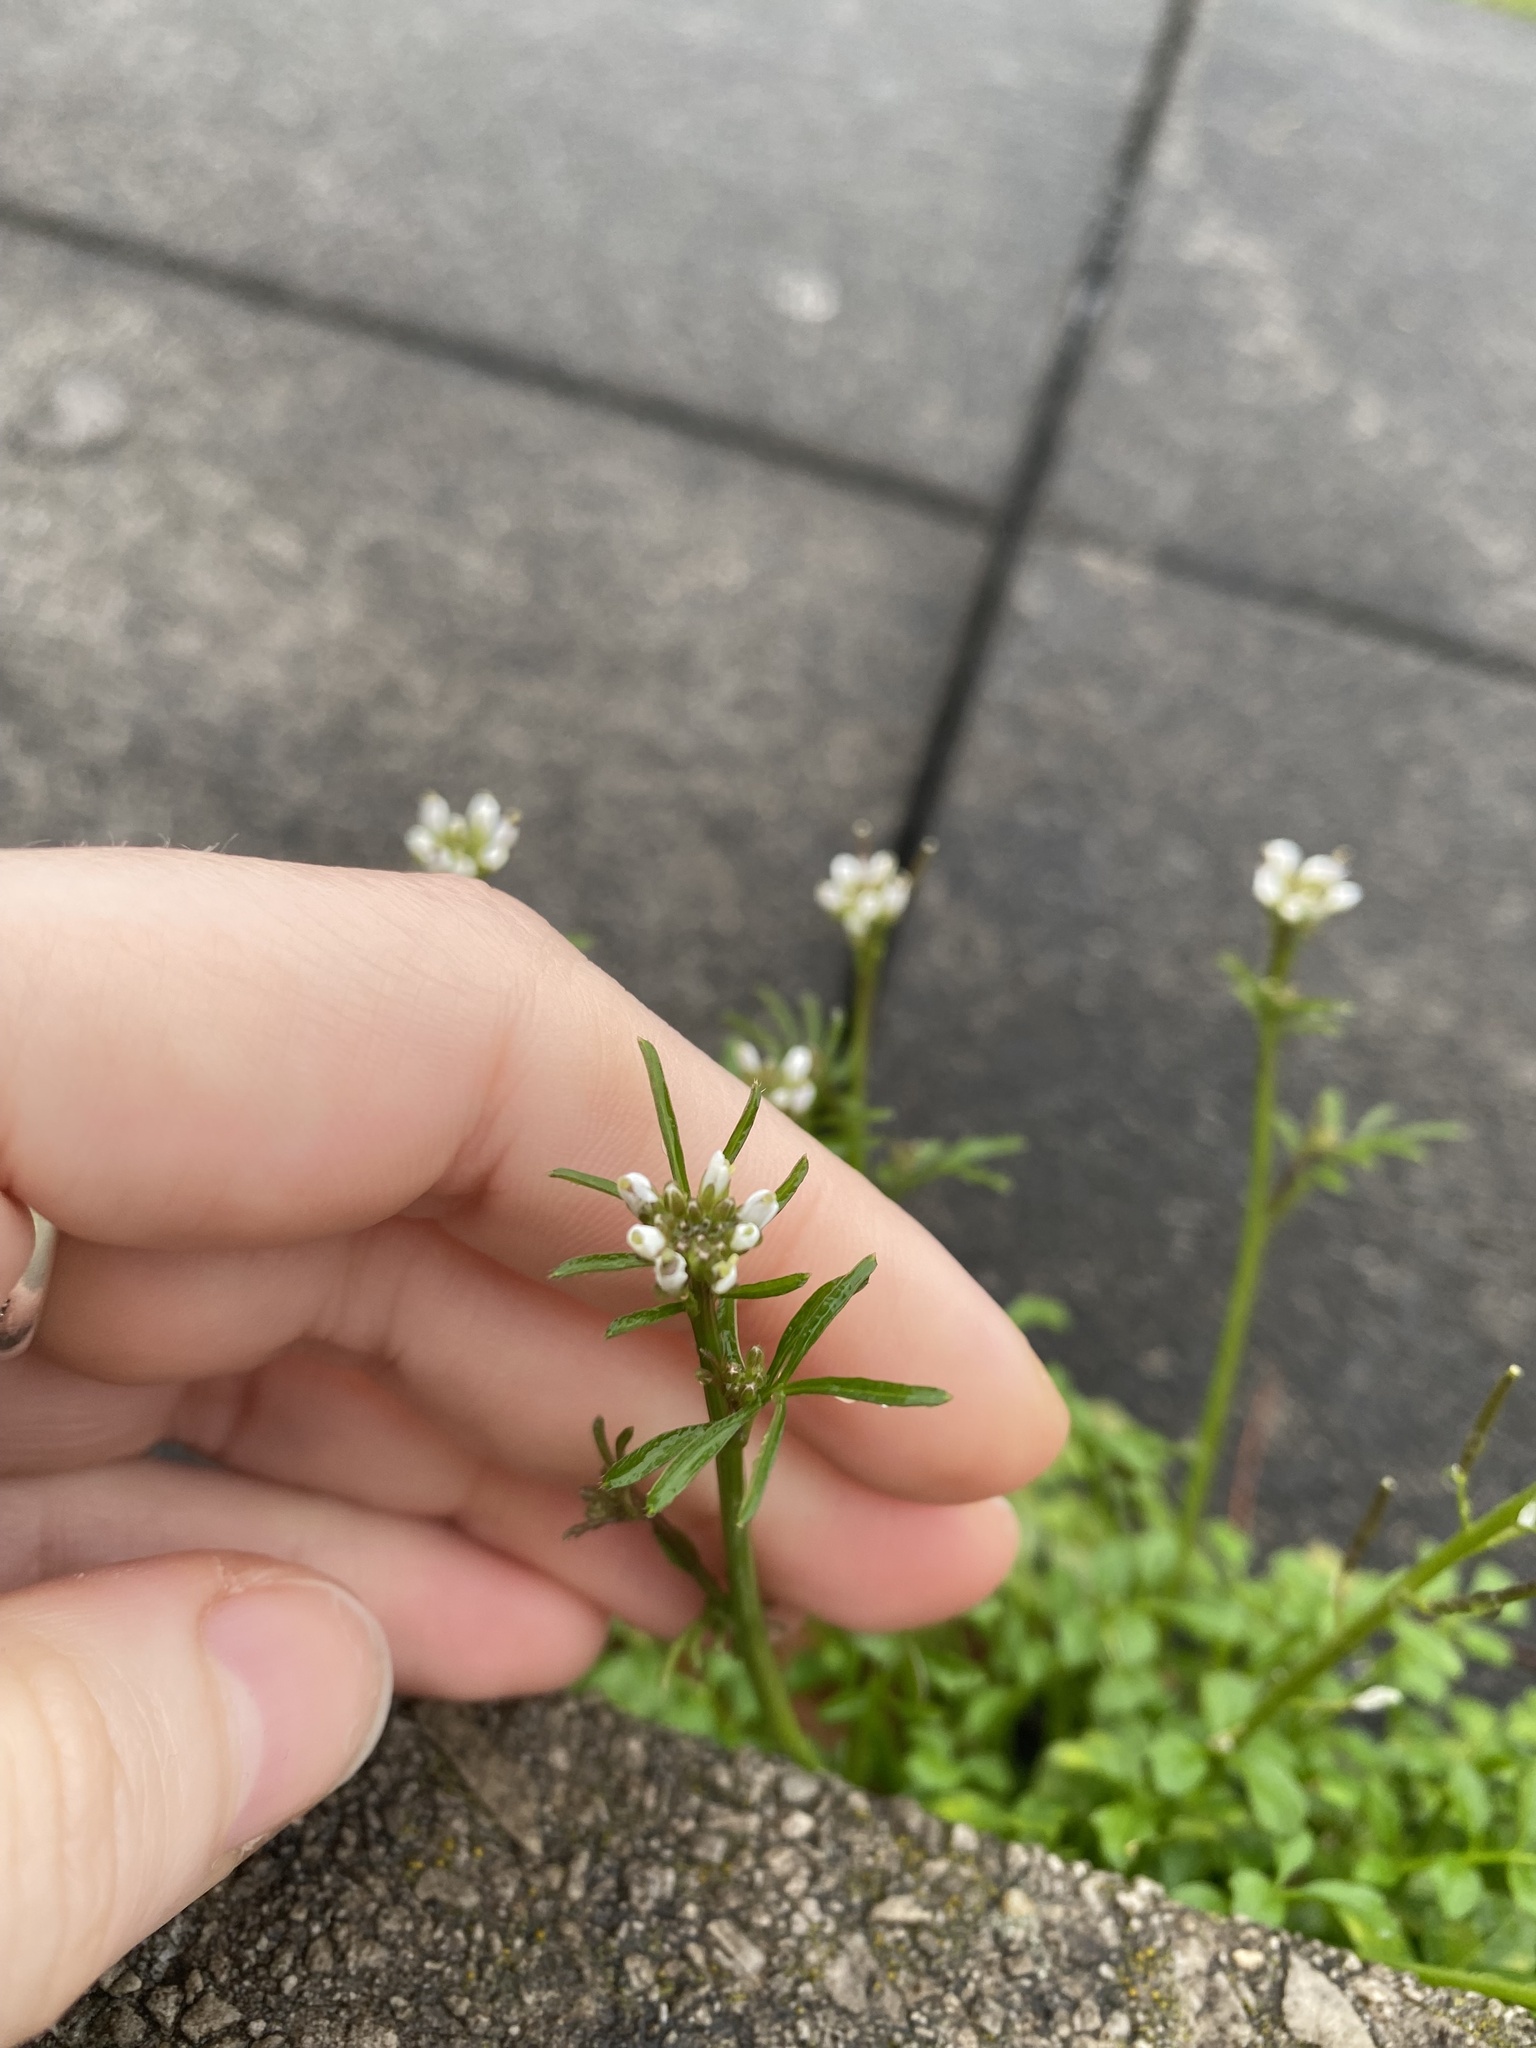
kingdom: Plantae
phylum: Tracheophyta
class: Magnoliopsida
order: Brassicales
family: Brassicaceae
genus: Cardamine
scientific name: Cardamine hirsuta
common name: Hairy bittercress
